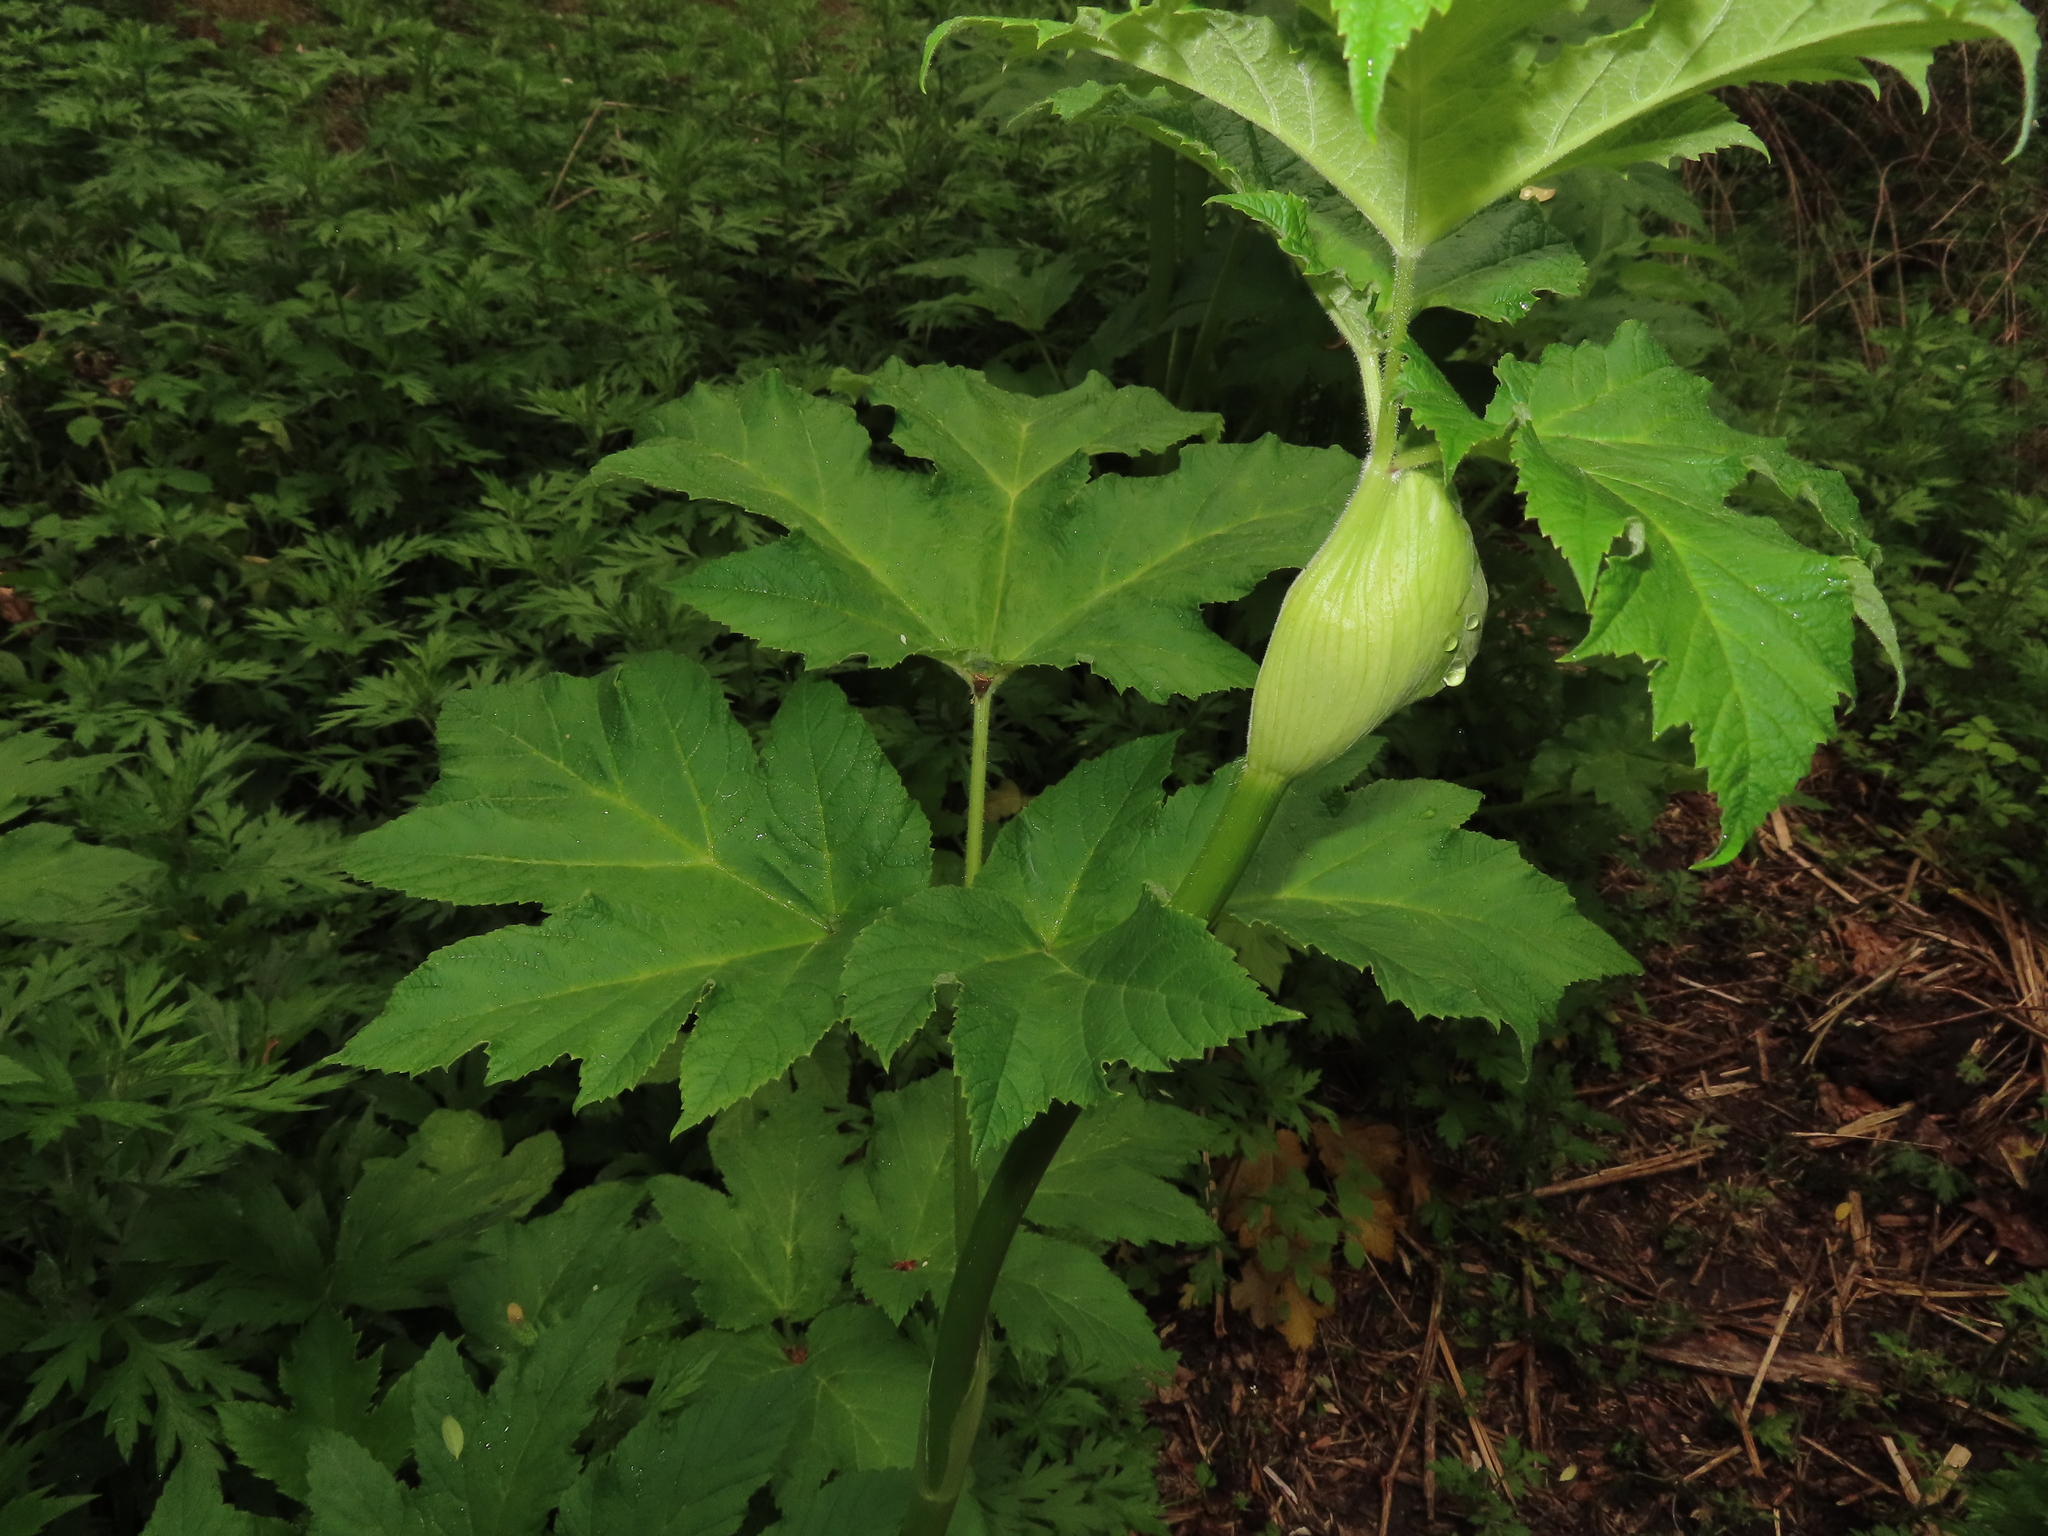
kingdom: Plantae
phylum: Tracheophyta
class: Magnoliopsida
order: Apiales
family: Apiaceae
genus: Heracleum
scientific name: Heracleum maximum
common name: American cow parsnip
